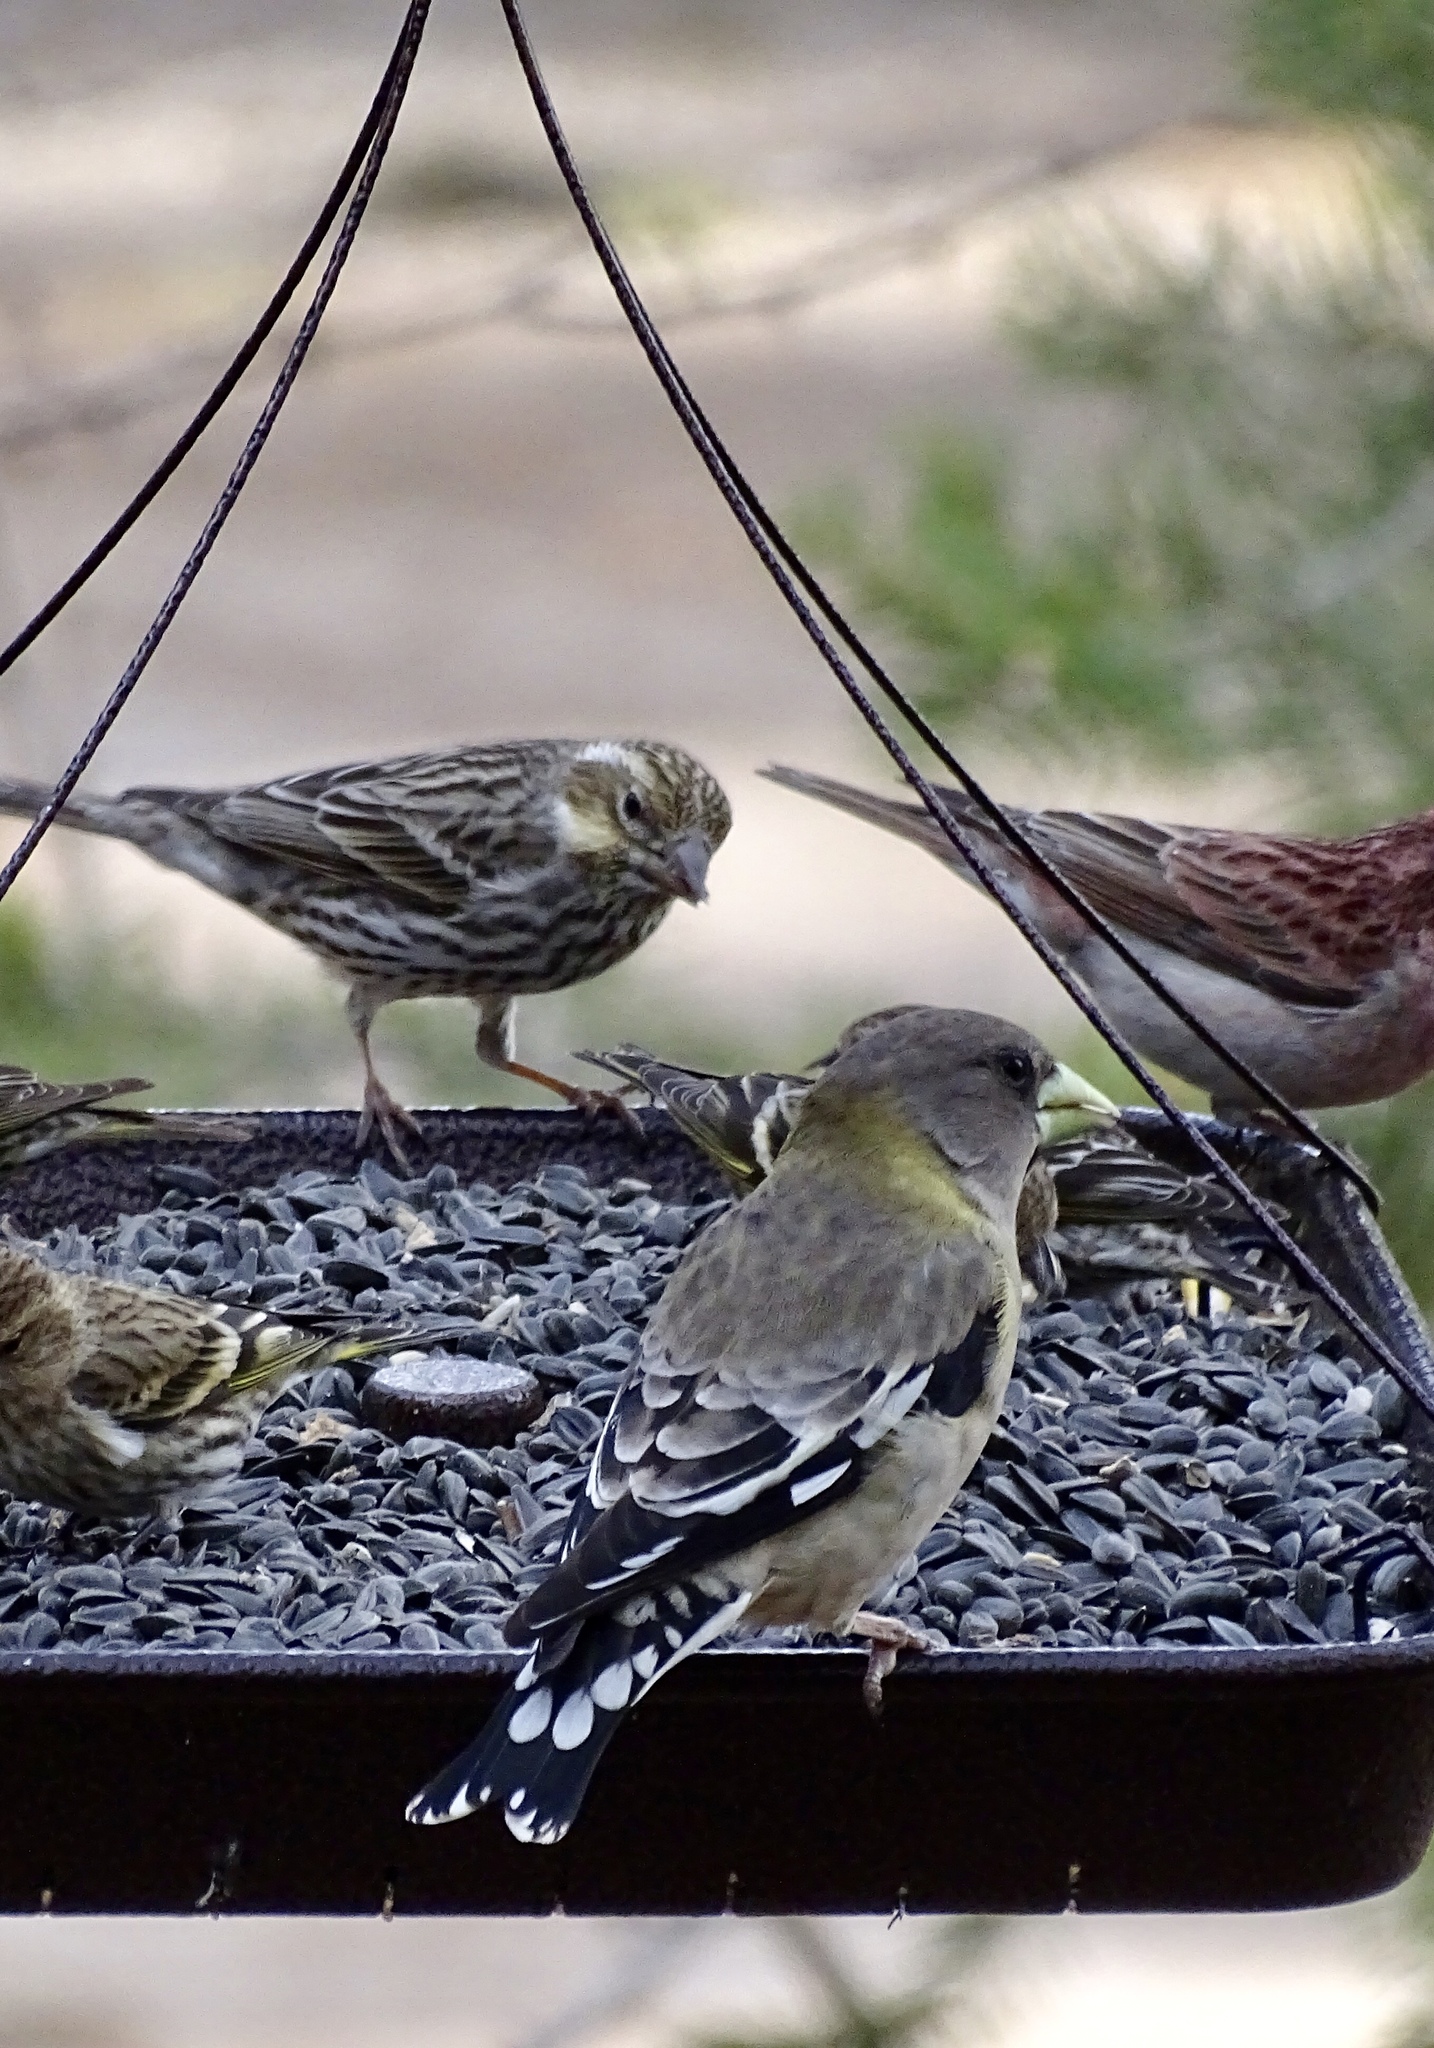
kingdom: Animalia
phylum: Chordata
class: Aves
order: Passeriformes
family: Fringillidae
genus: Hesperiphona
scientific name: Hesperiphona vespertina
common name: Evening grosbeak
